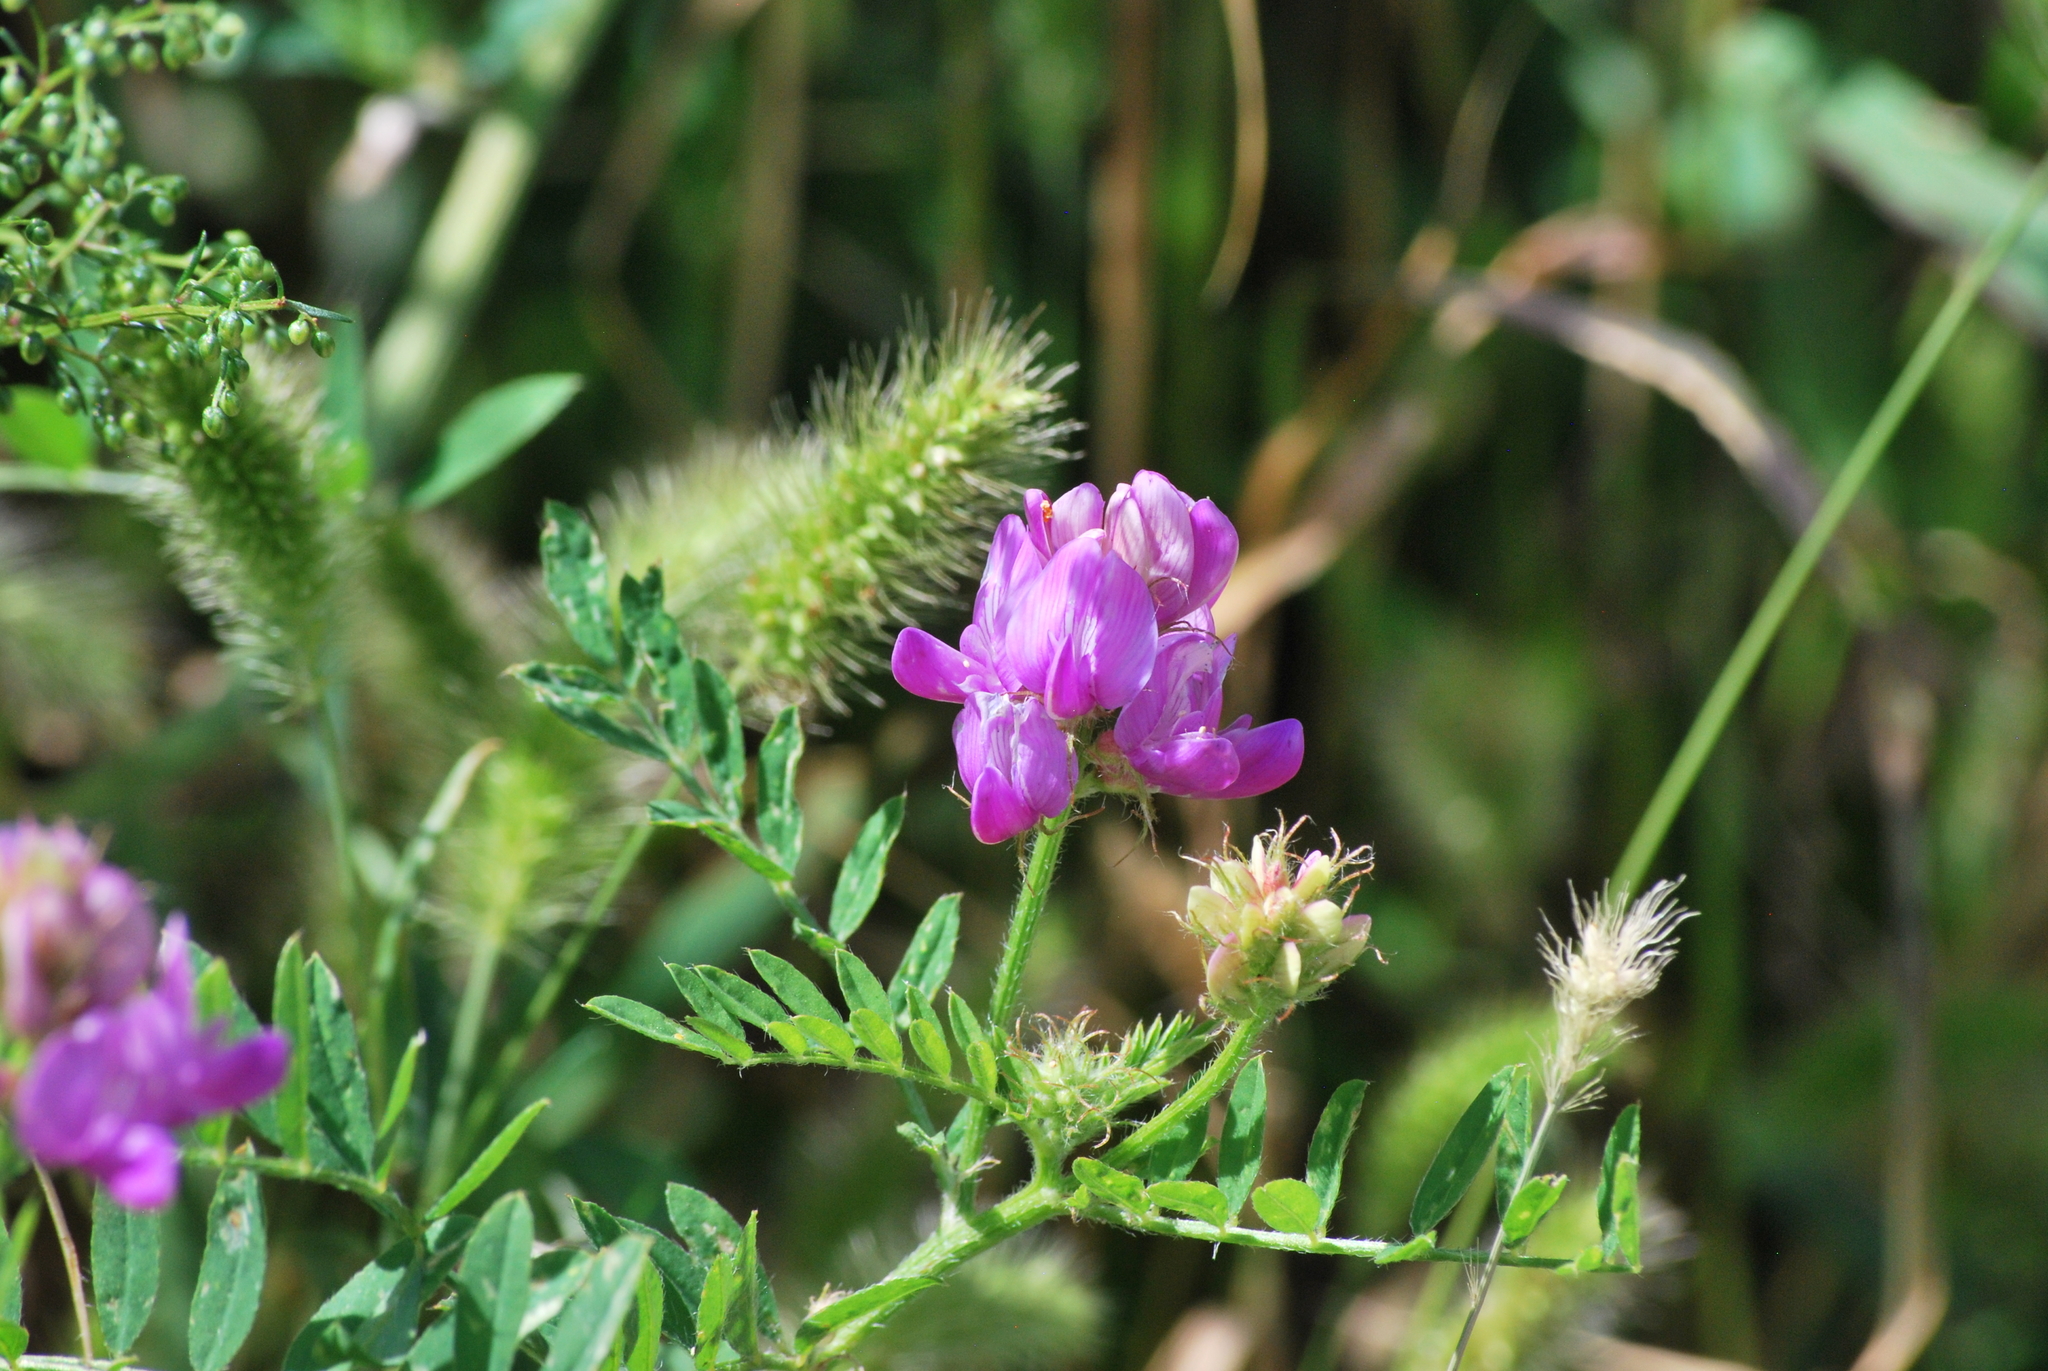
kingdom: Plantae
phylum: Tracheophyta
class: Magnoliopsida
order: Fabales
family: Fabaceae
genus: Astragalus
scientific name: Astragalus davuricus
